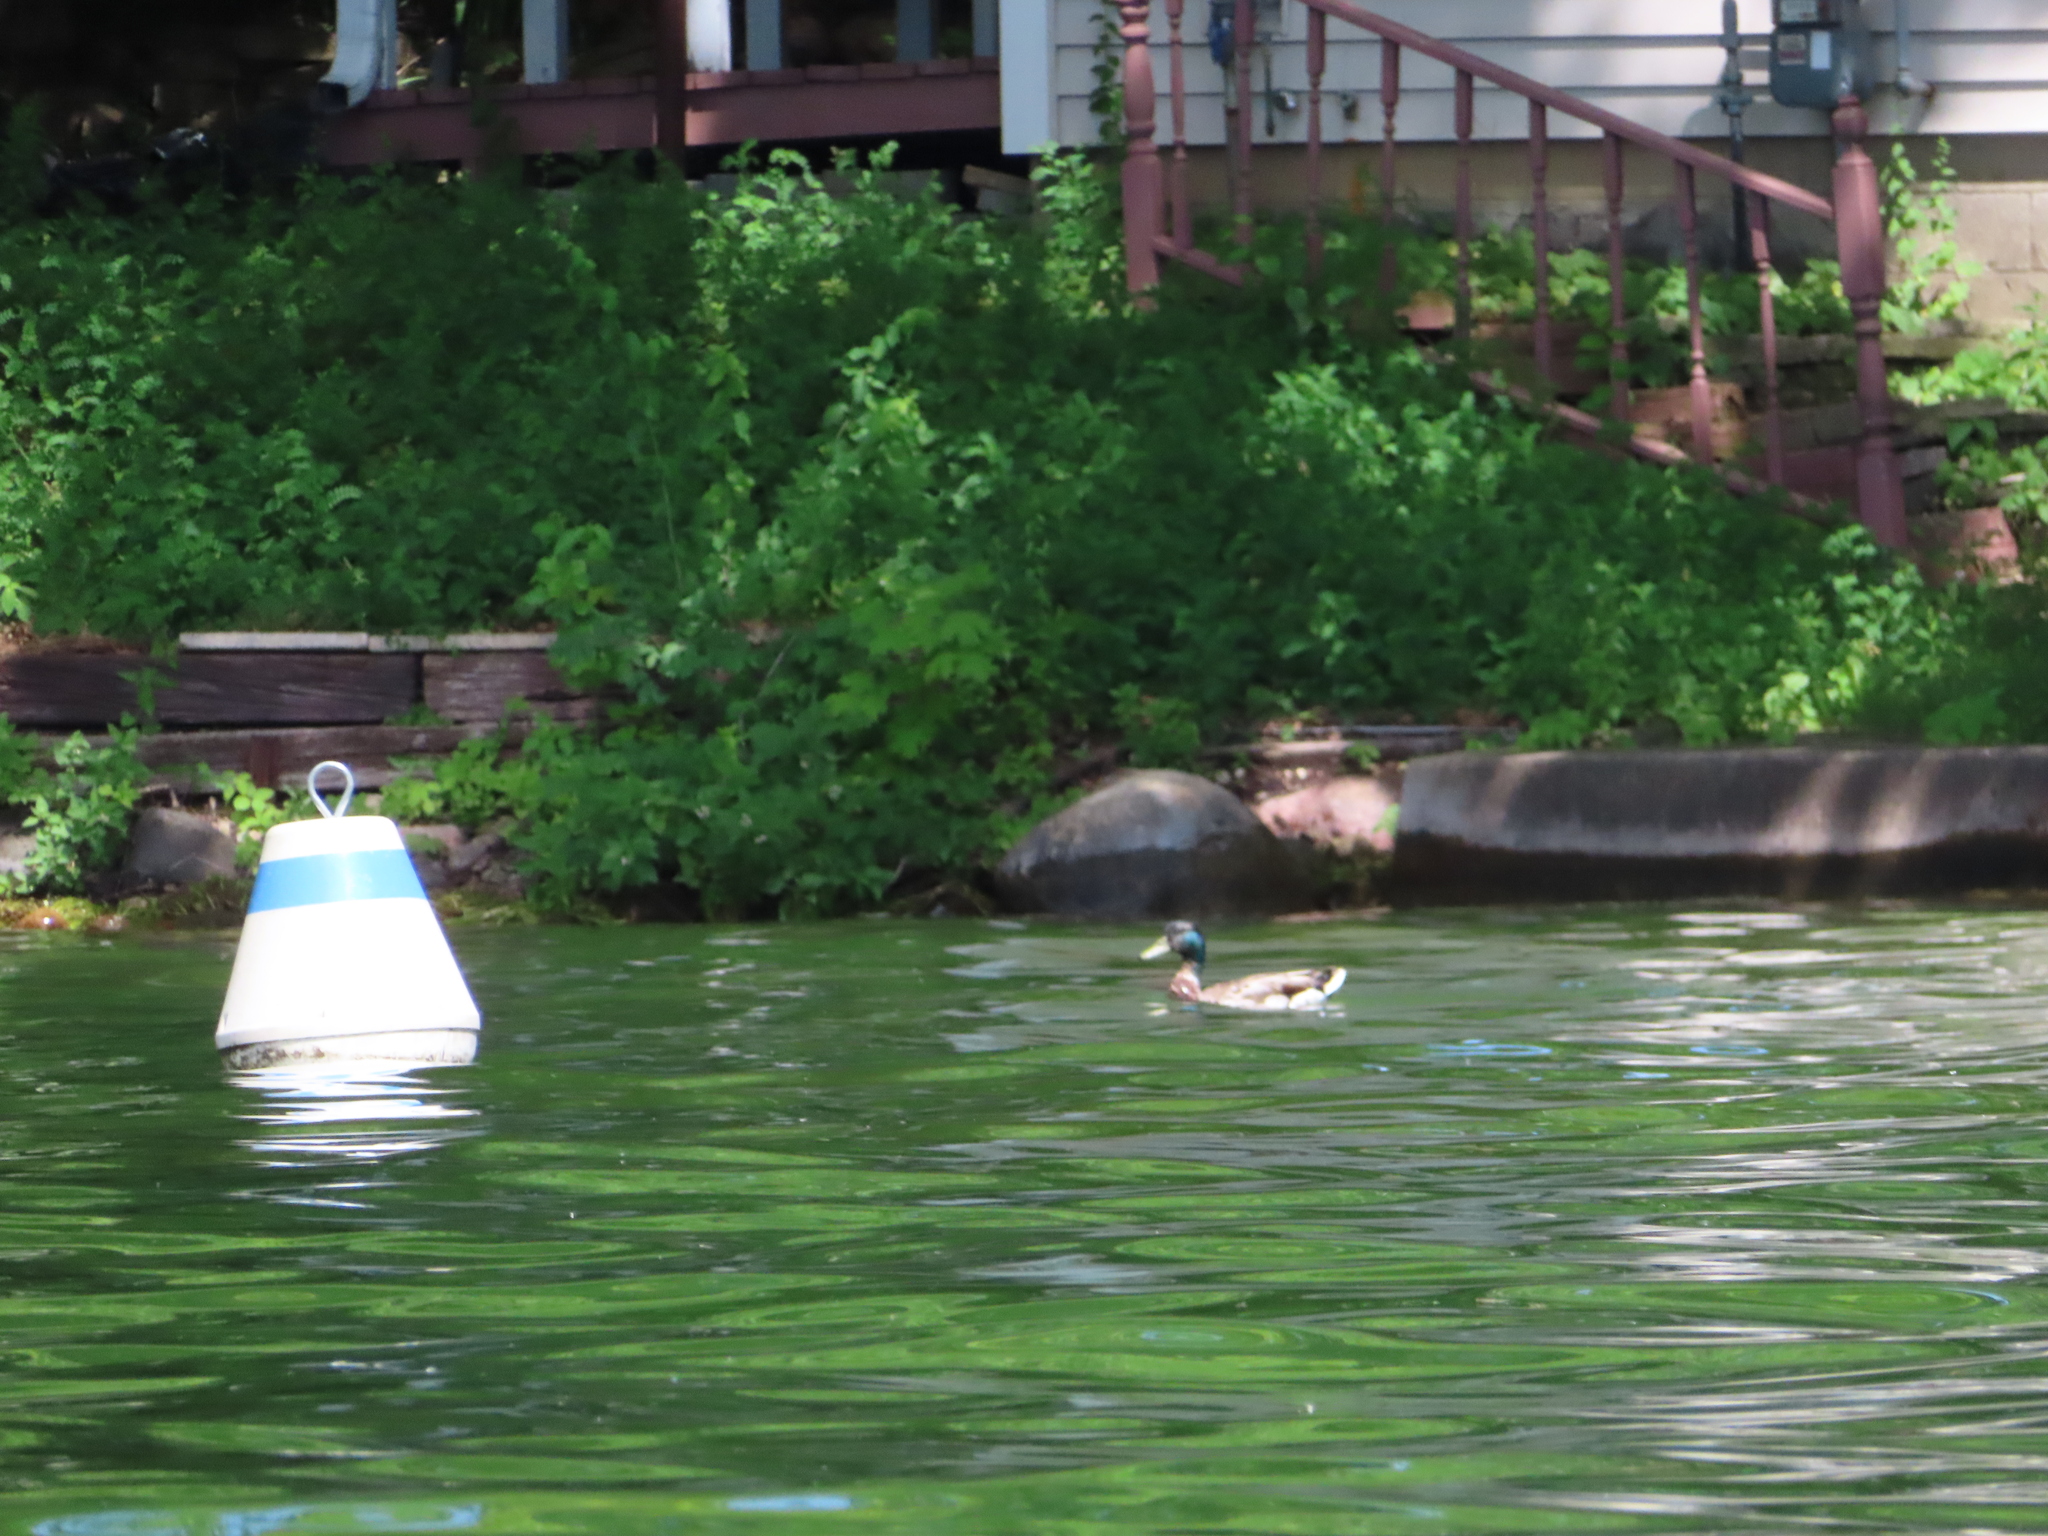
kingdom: Animalia
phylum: Chordata
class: Aves
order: Anseriformes
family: Anatidae
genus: Anas
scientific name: Anas platyrhynchos
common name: Mallard
